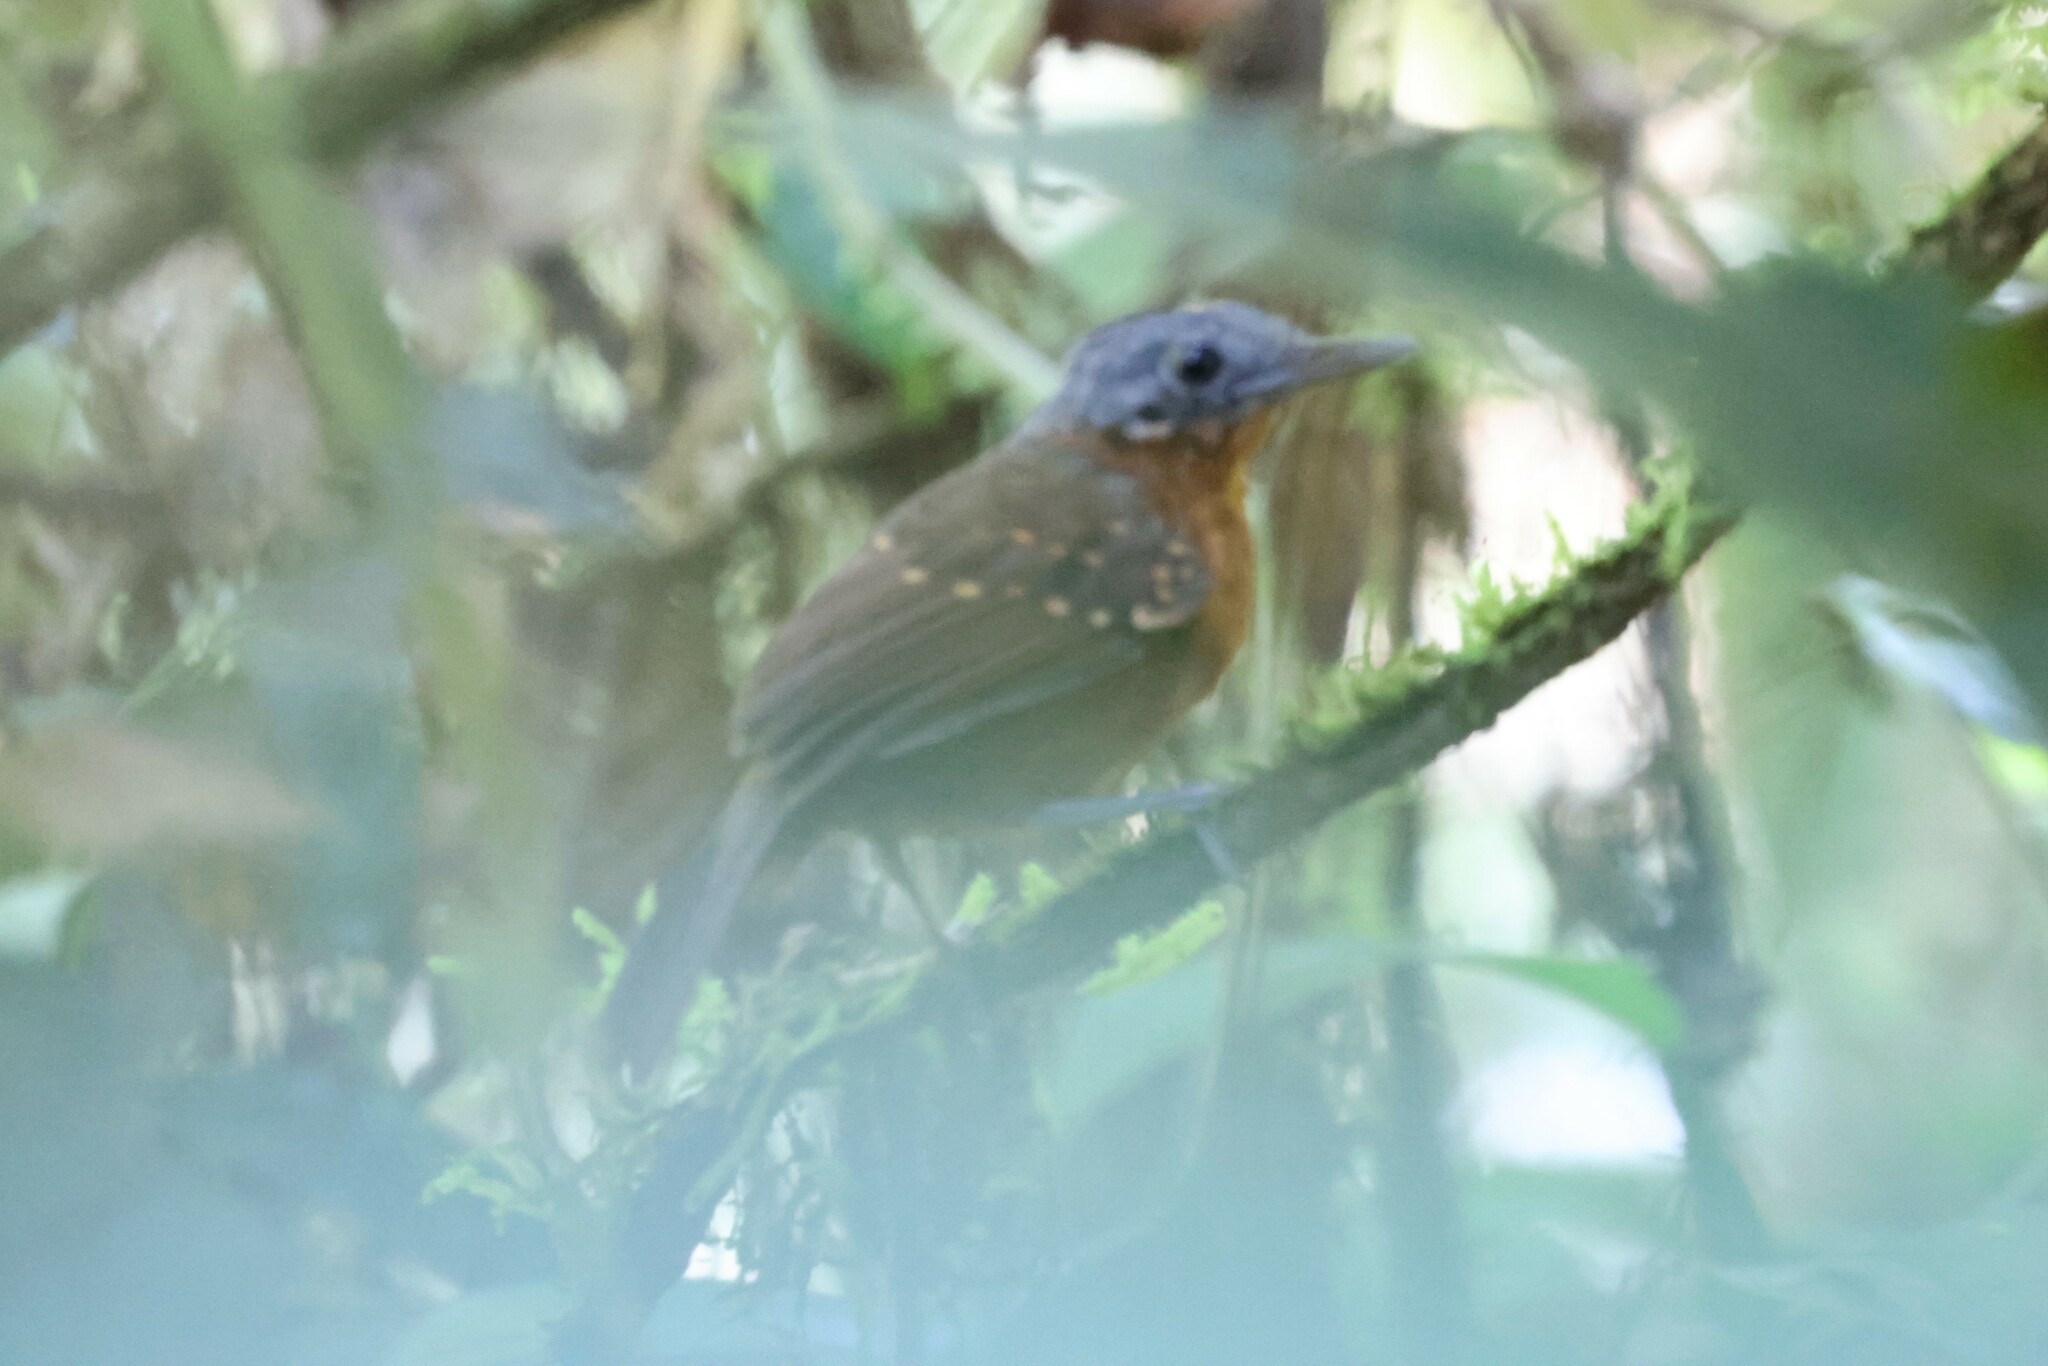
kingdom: Animalia
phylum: Chordata
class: Aves
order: Passeriformes
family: Thamnophilidae
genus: Myrmotherula
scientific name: Myrmotherula axillaris
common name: White-flanked antwren
